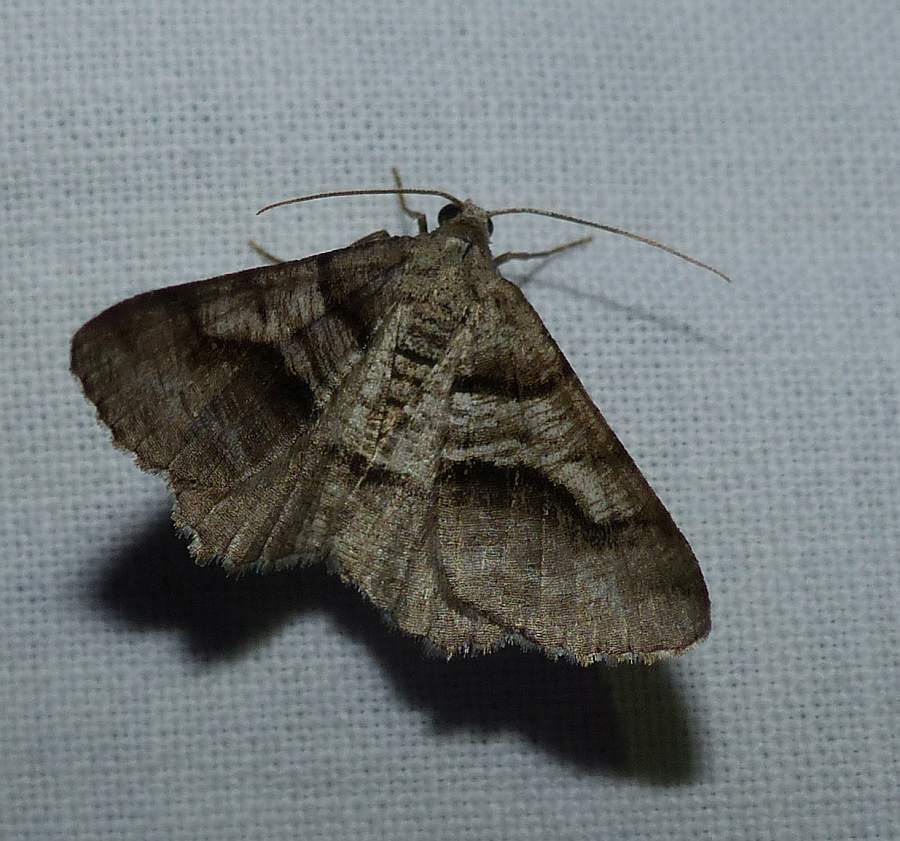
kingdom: Animalia
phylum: Arthropoda
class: Insecta
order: Lepidoptera
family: Geometridae
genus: Digrammia
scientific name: Digrammia continuata
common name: Curve-lined angle
